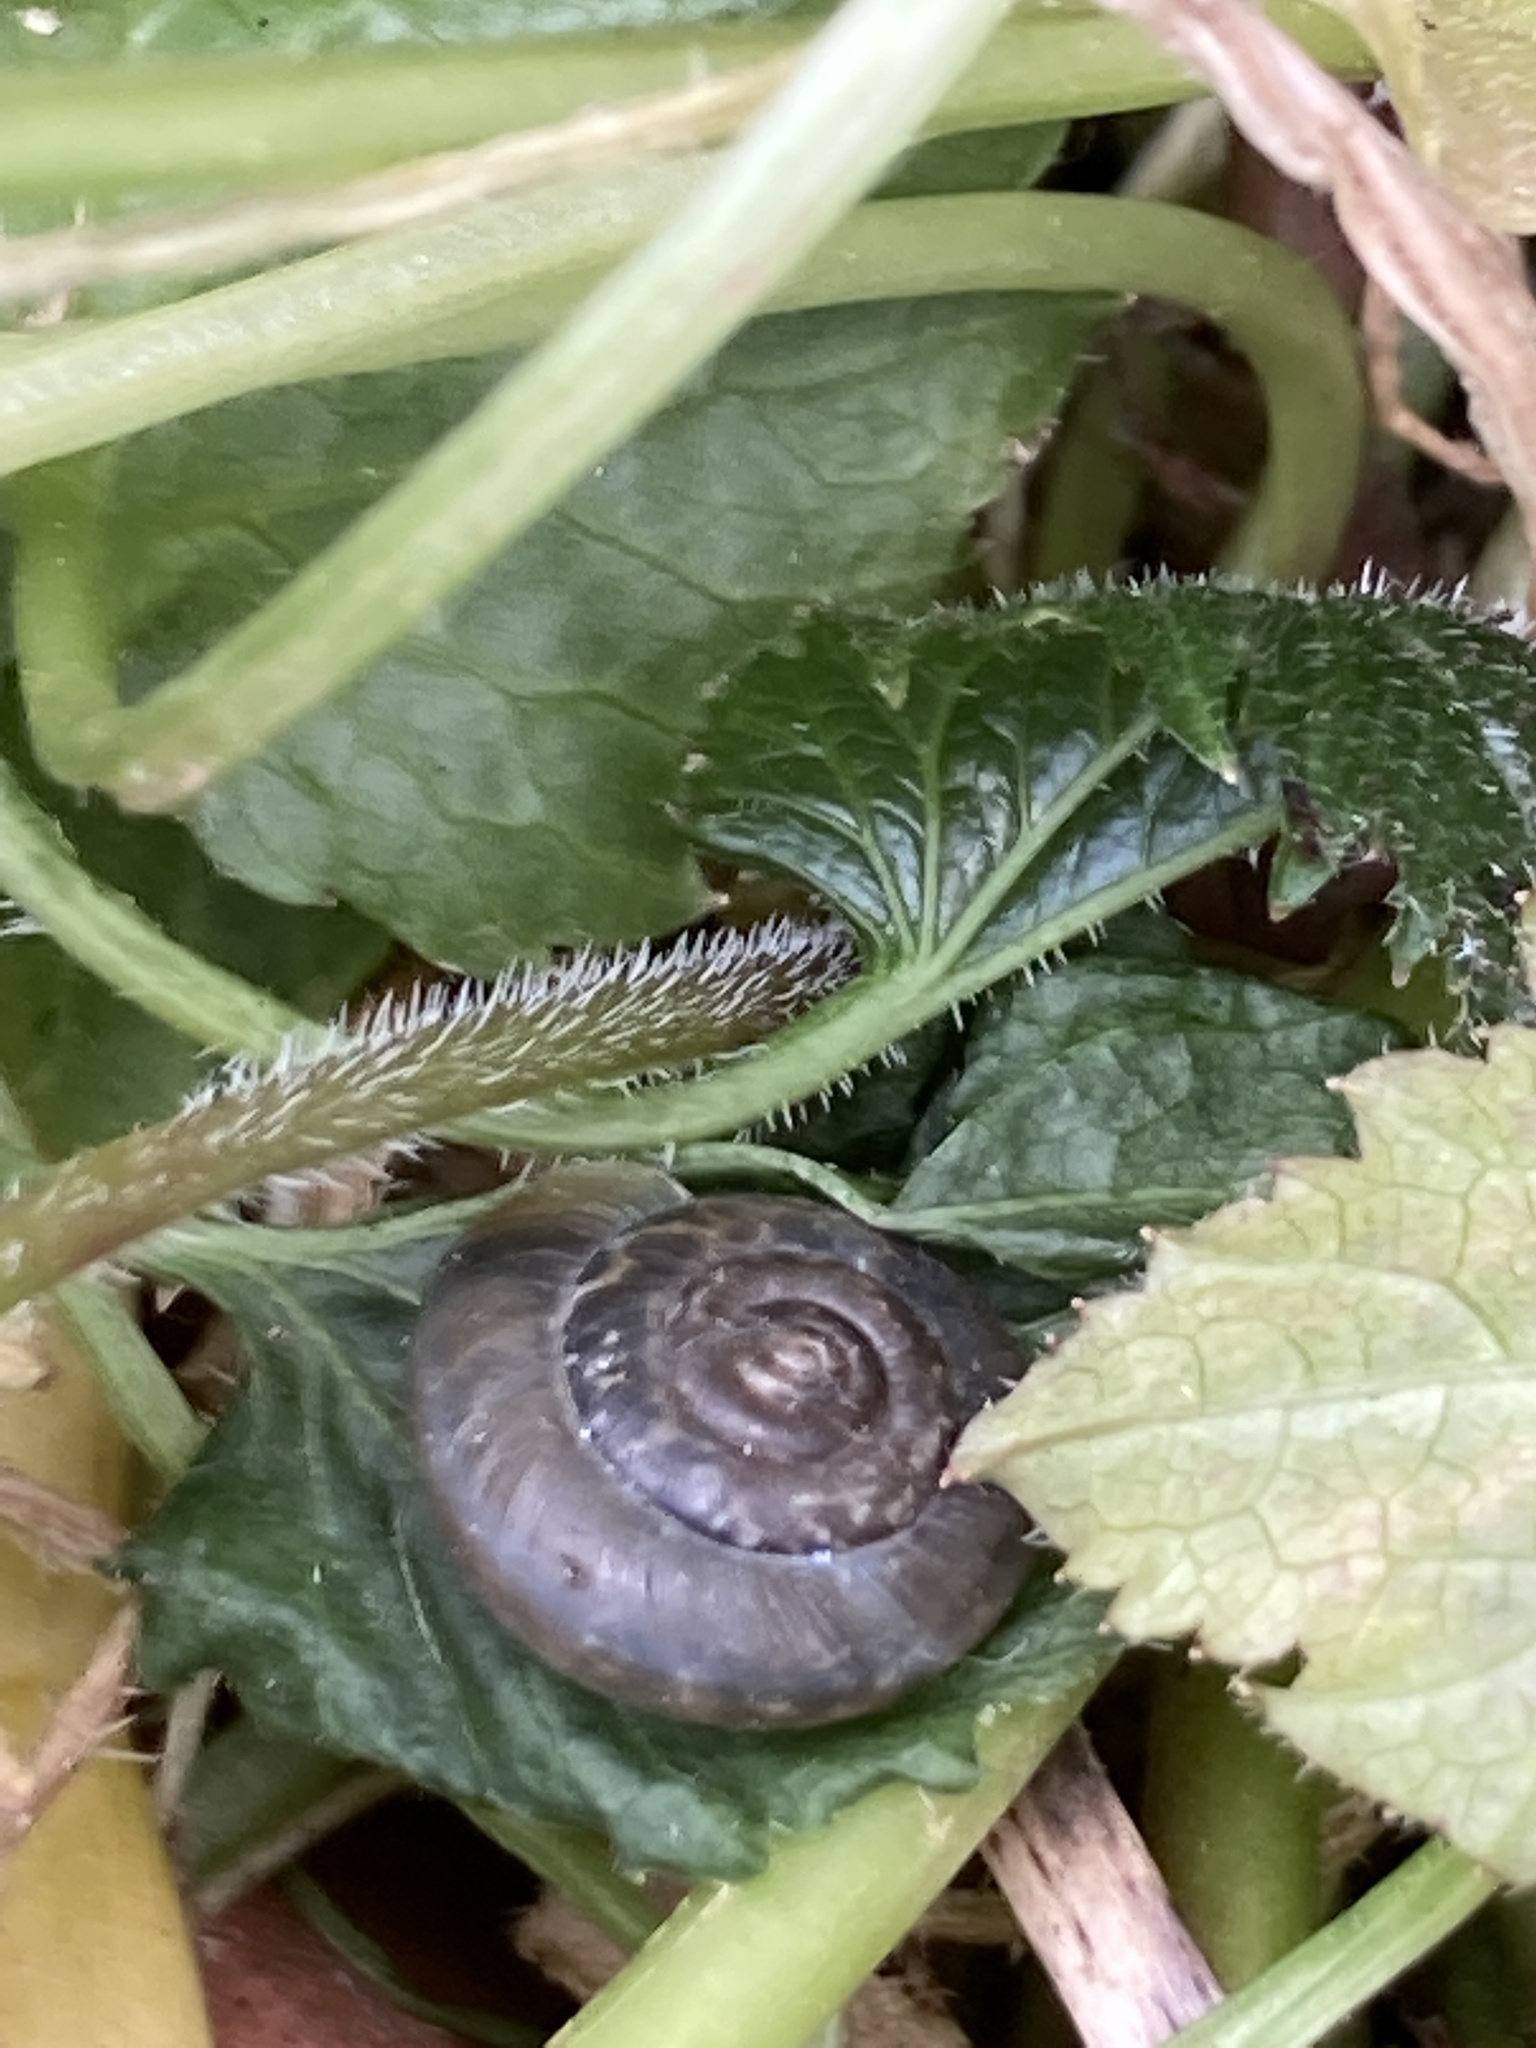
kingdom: Animalia
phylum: Mollusca
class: Gastropoda
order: Stylommatophora
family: Hygromiidae
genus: Trochulus
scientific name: Trochulus striolatus
